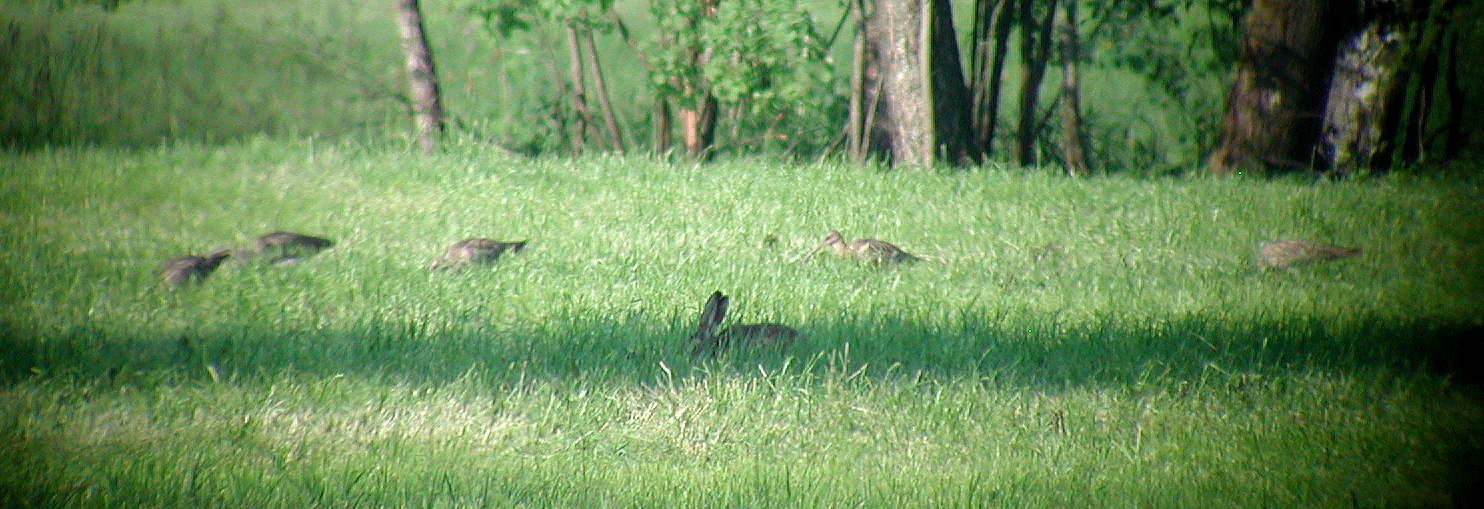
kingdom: Animalia
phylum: Chordata
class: Aves
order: Charadriiformes
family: Scolopacidae
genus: Numenius
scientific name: Numenius arquata
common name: Eurasian curlew
